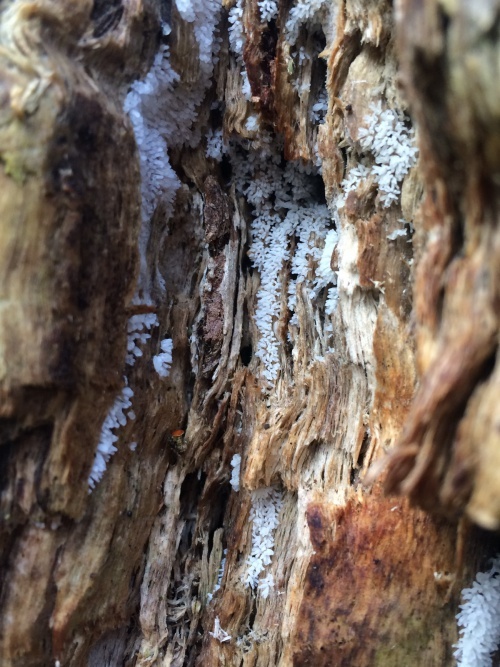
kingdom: Protozoa
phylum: Mycetozoa
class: Protosteliomycetes
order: Ceratiomyxales
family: Ceratiomyxaceae
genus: Ceratiomyxa
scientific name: Ceratiomyxa fruticulosa
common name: Honeycomb coral slime mold
